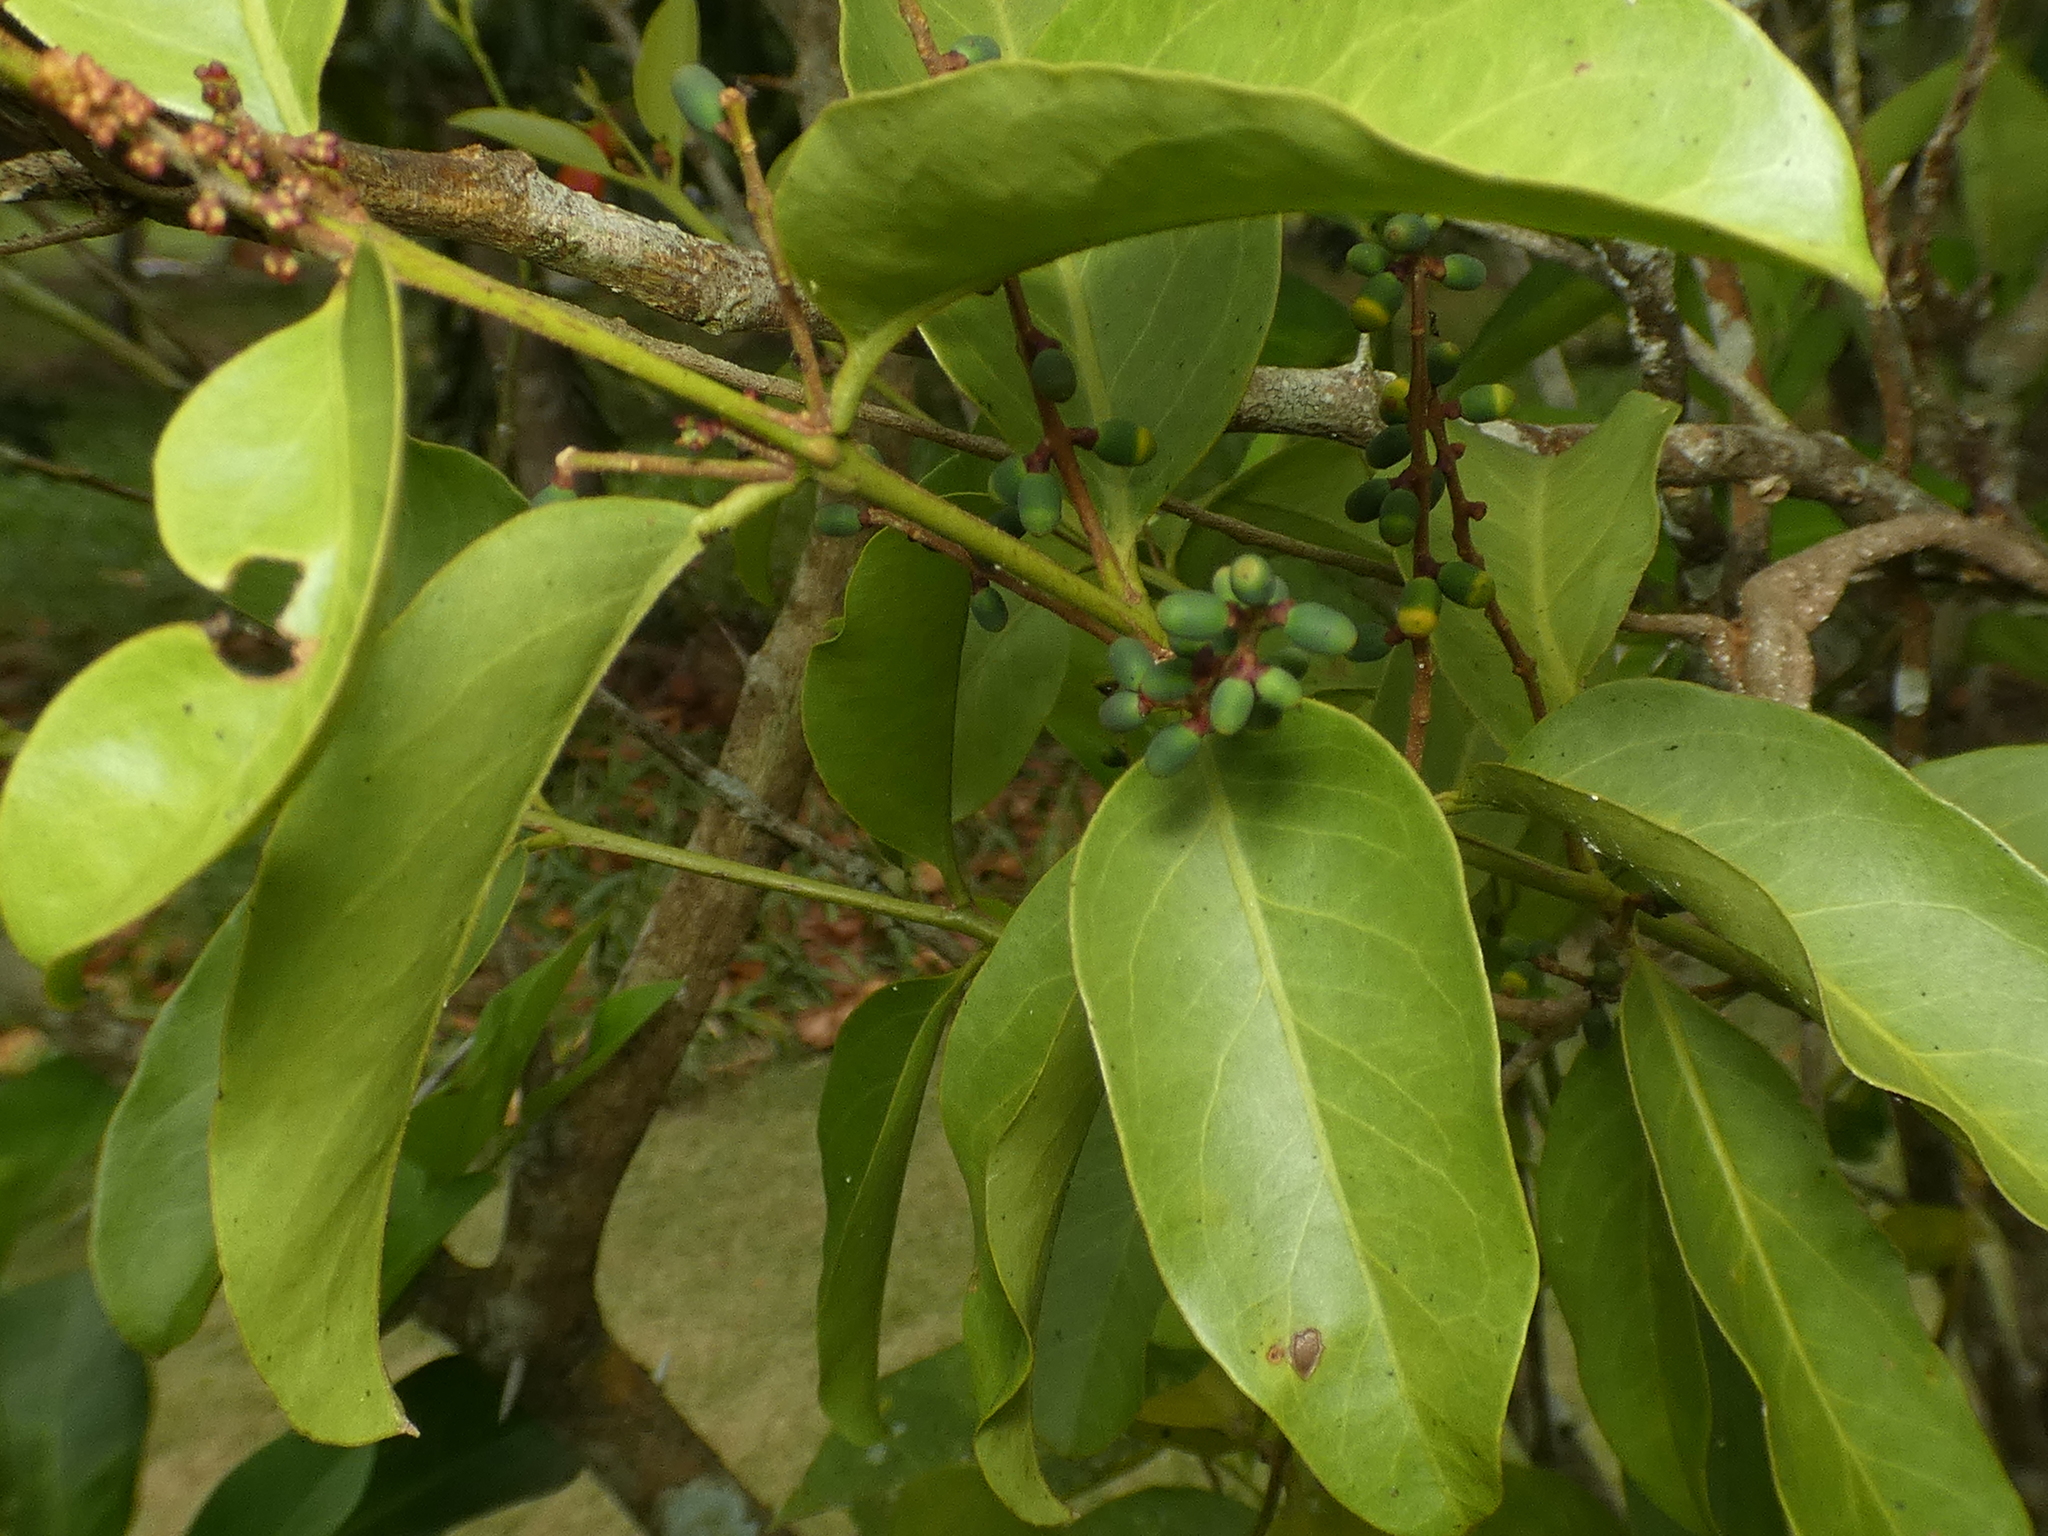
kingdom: Plantae
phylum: Tracheophyta
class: Magnoliopsida
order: Santalales
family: Loranthaceae
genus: Passovia
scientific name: Passovia pyrifolia
